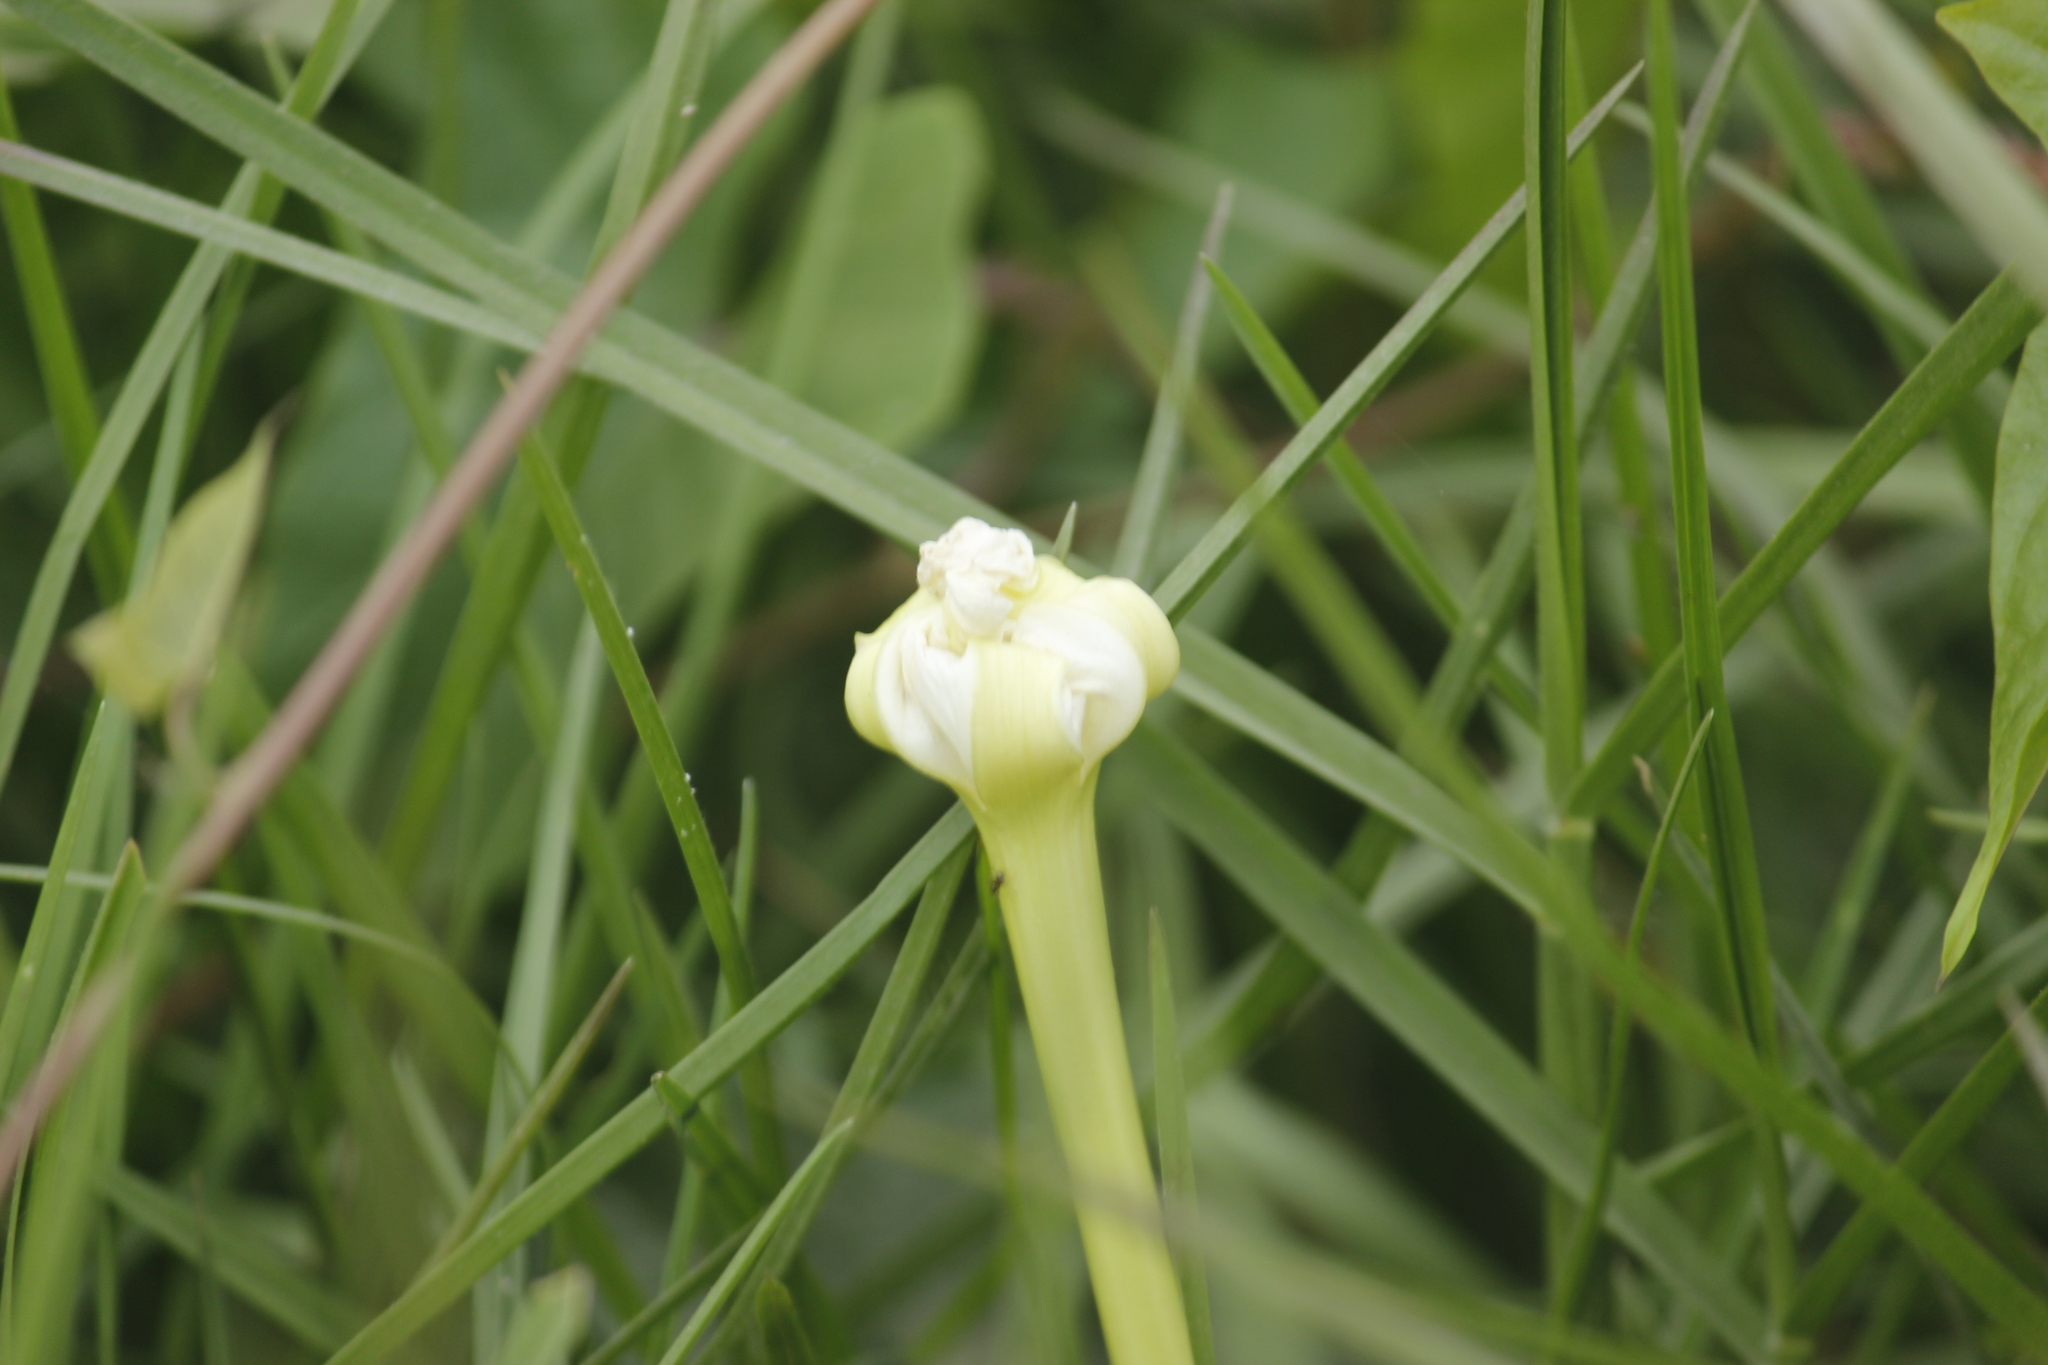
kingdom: Plantae
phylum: Tracheophyta
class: Magnoliopsida
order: Solanales
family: Convolvulaceae
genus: Ipomoea
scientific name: Ipomoea alba
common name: Moonflower
